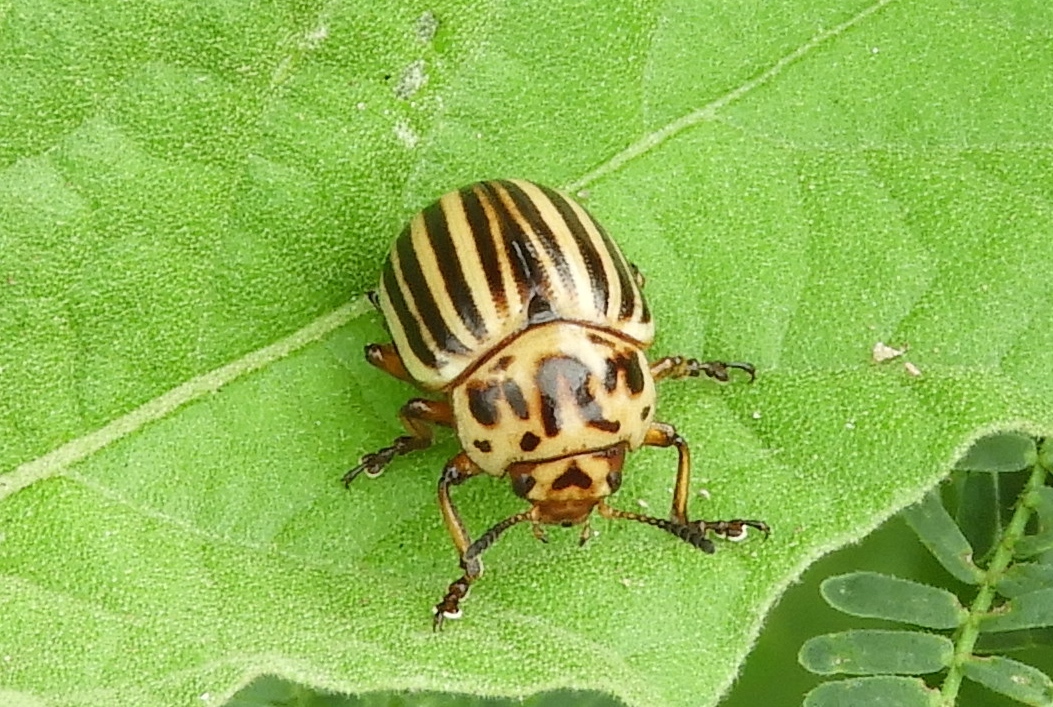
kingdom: Animalia
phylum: Arthropoda
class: Insecta
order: Coleoptera
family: Chrysomelidae
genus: Leptinotarsa
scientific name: Leptinotarsa decemlineata
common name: Colorado potato beetle
